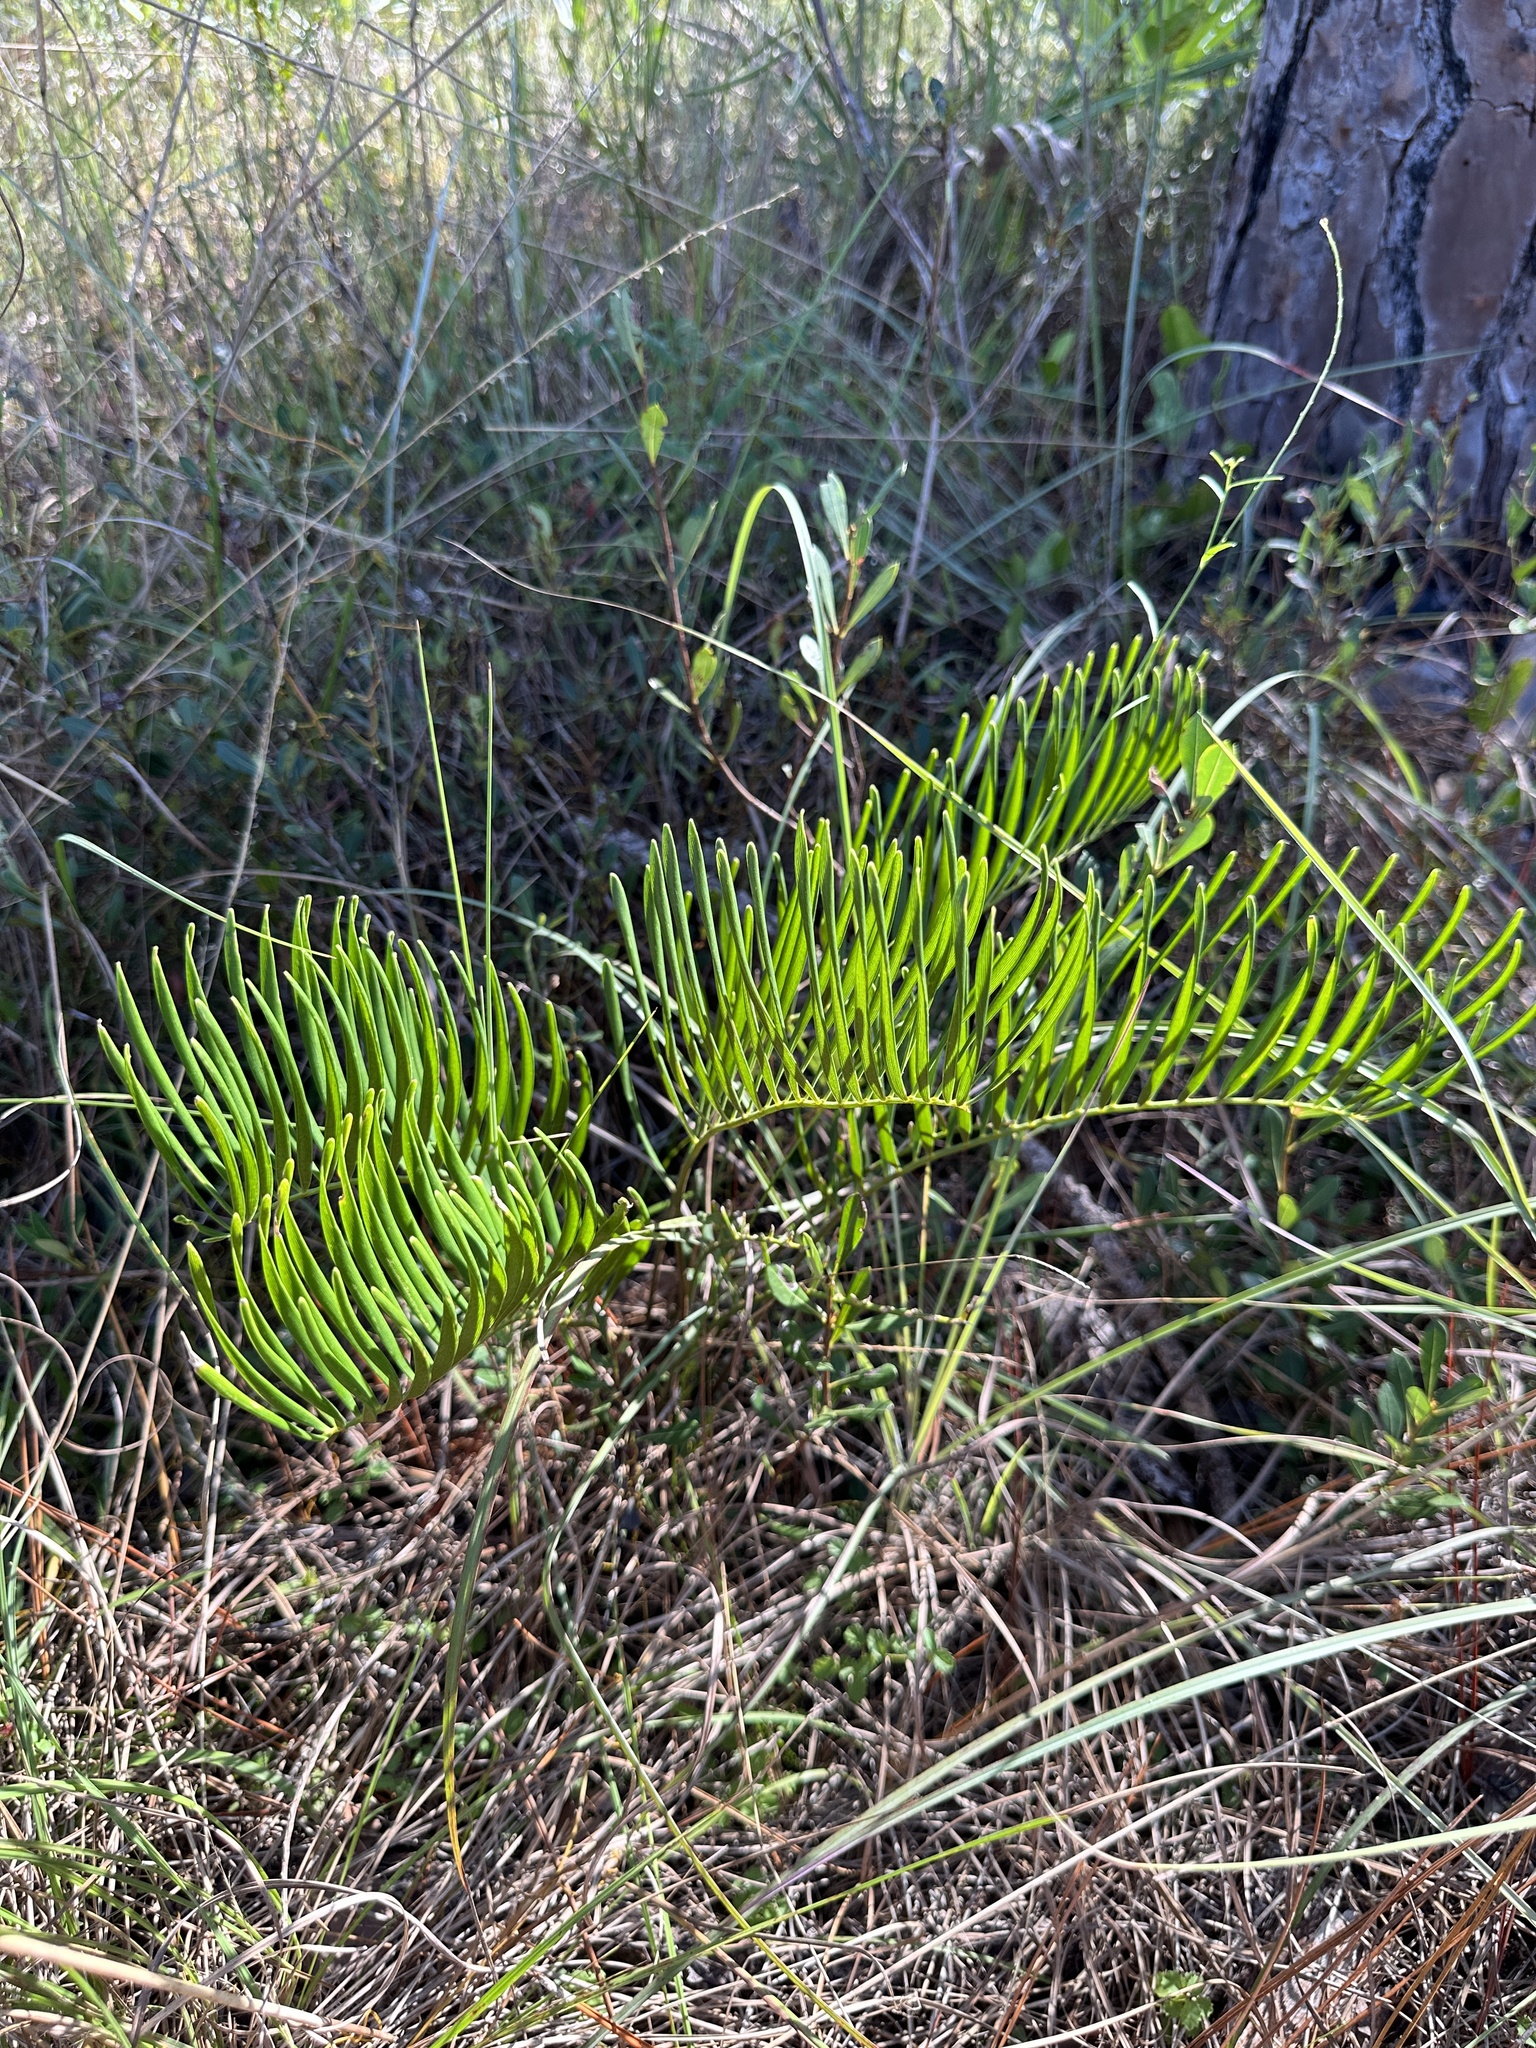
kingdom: Plantae
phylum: Tracheophyta
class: Cycadopsida
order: Cycadales
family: Zamiaceae
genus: Zamia
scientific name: Zamia integrifolia
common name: Florida arrowroot
